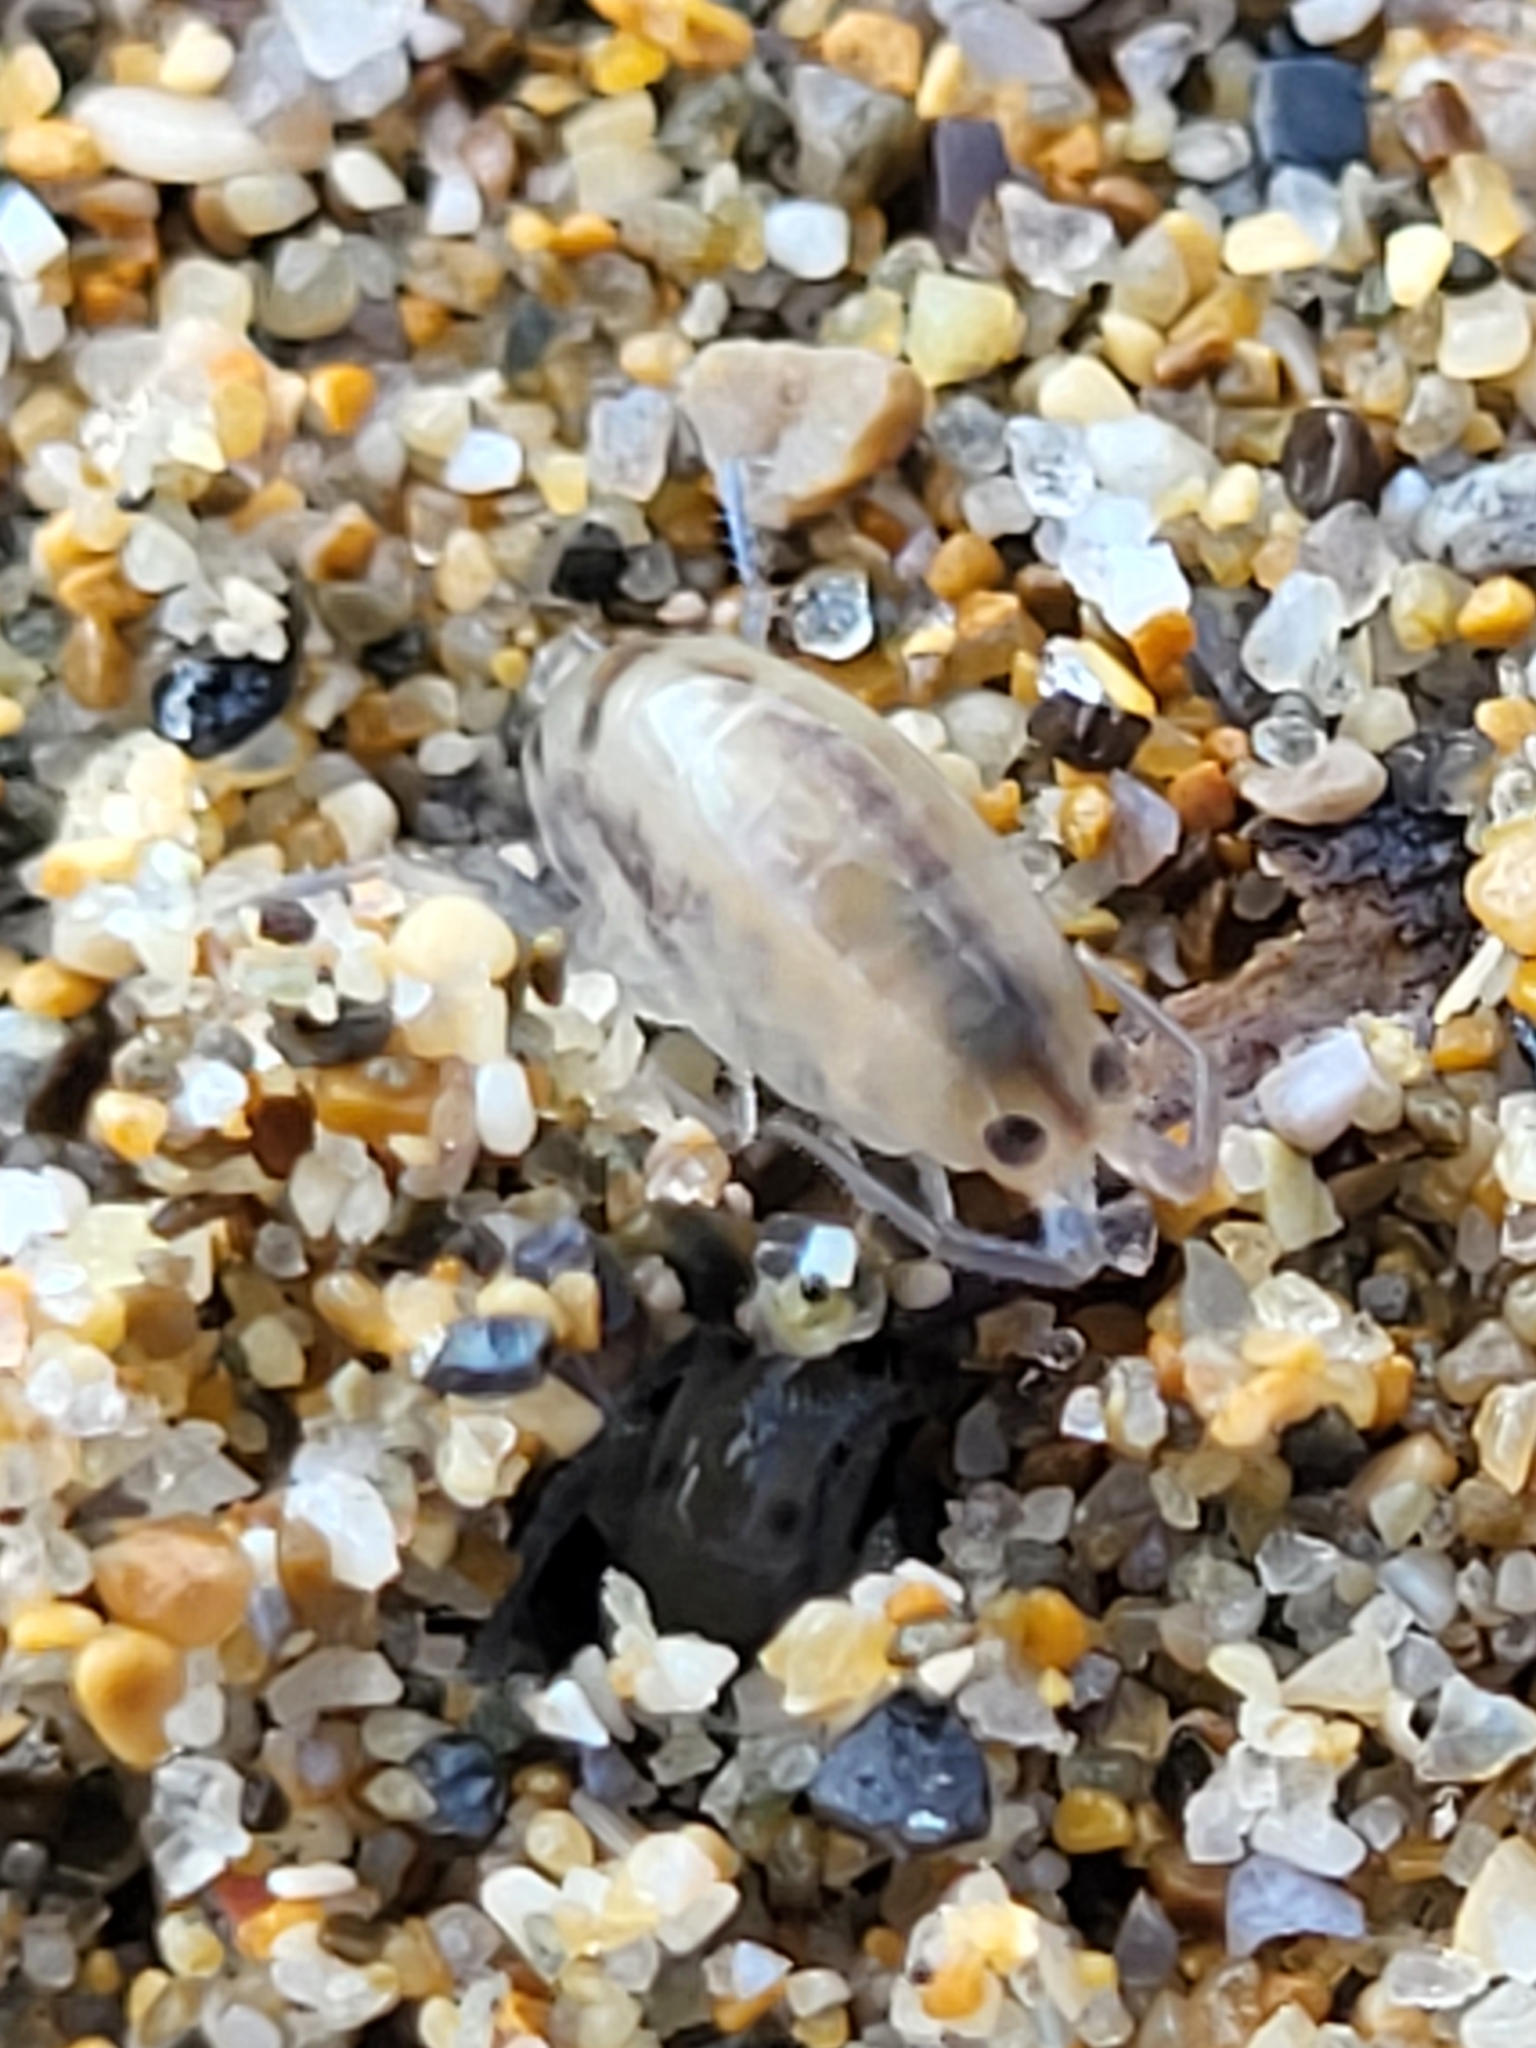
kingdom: Animalia
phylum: Arthropoda
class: Malacostraca
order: Amphipoda
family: Talitridae
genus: Talitrus
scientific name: Talitrus platycheles
